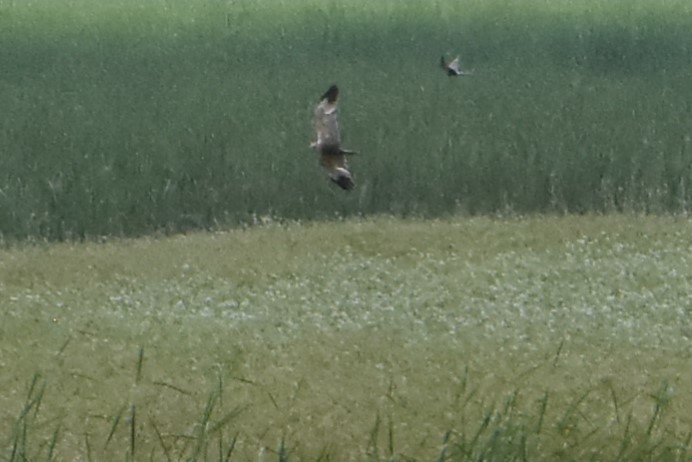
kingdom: Animalia
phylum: Chordata
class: Aves
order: Accipitriformes
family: Accipitridae
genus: Circus
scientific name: Circus aeruginosus
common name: Western marsh harrier
